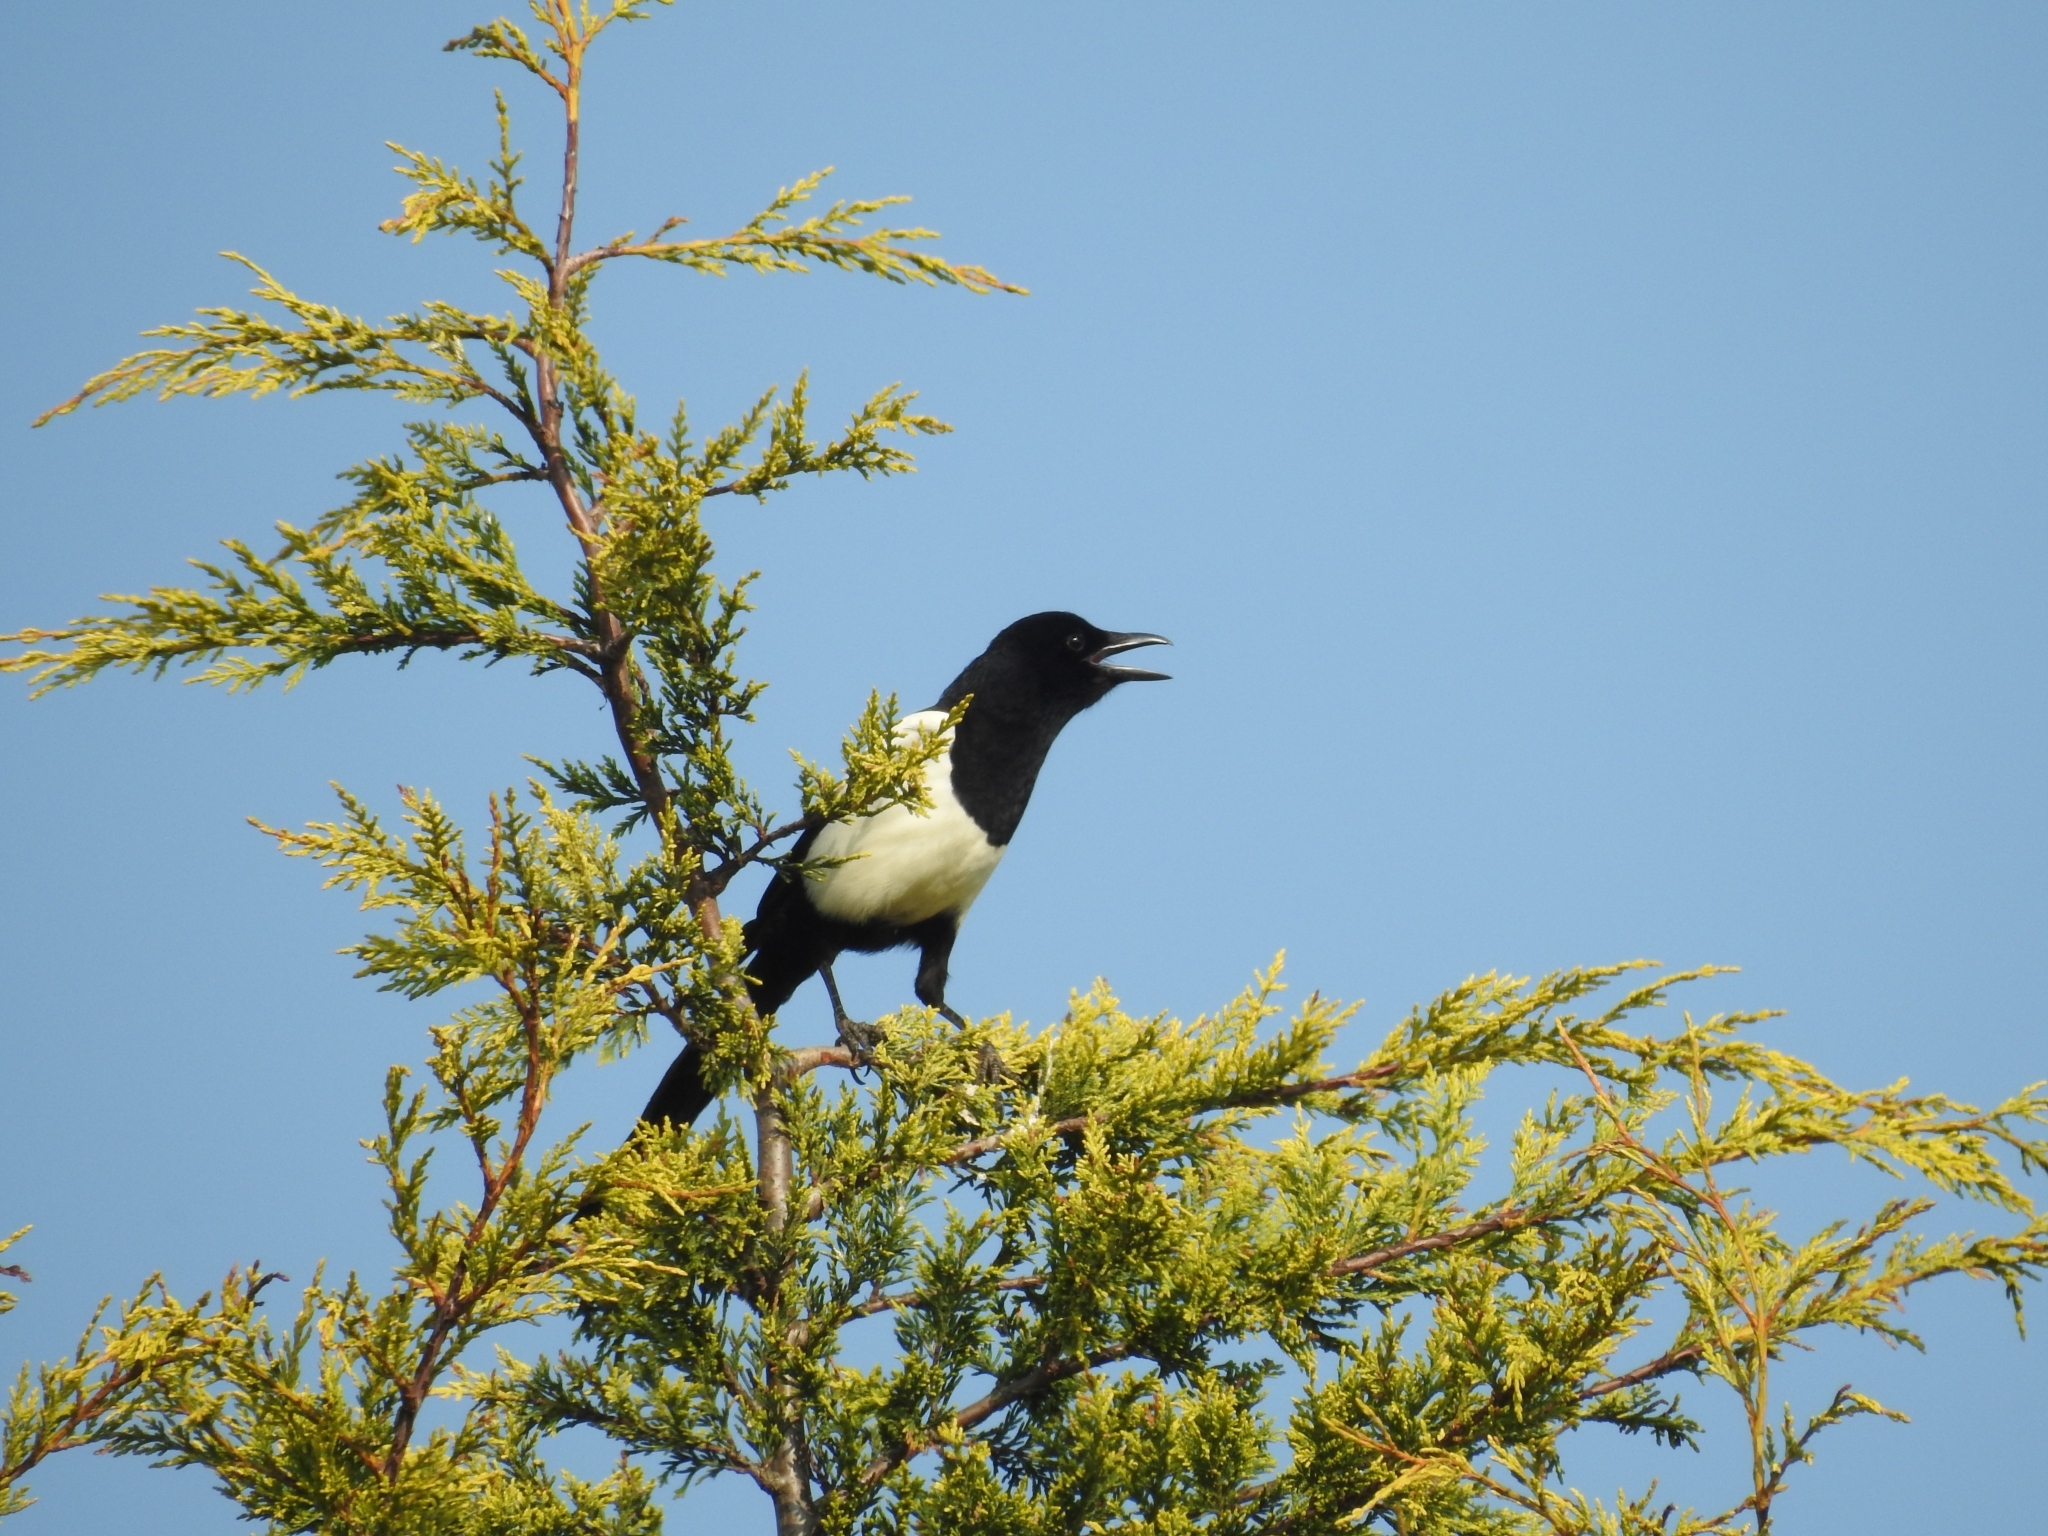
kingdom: Animalia
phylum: Chordata
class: Aves
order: Passeriformes
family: Corvidae
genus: Pica
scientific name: Pica pica
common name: Eurasian magpie
